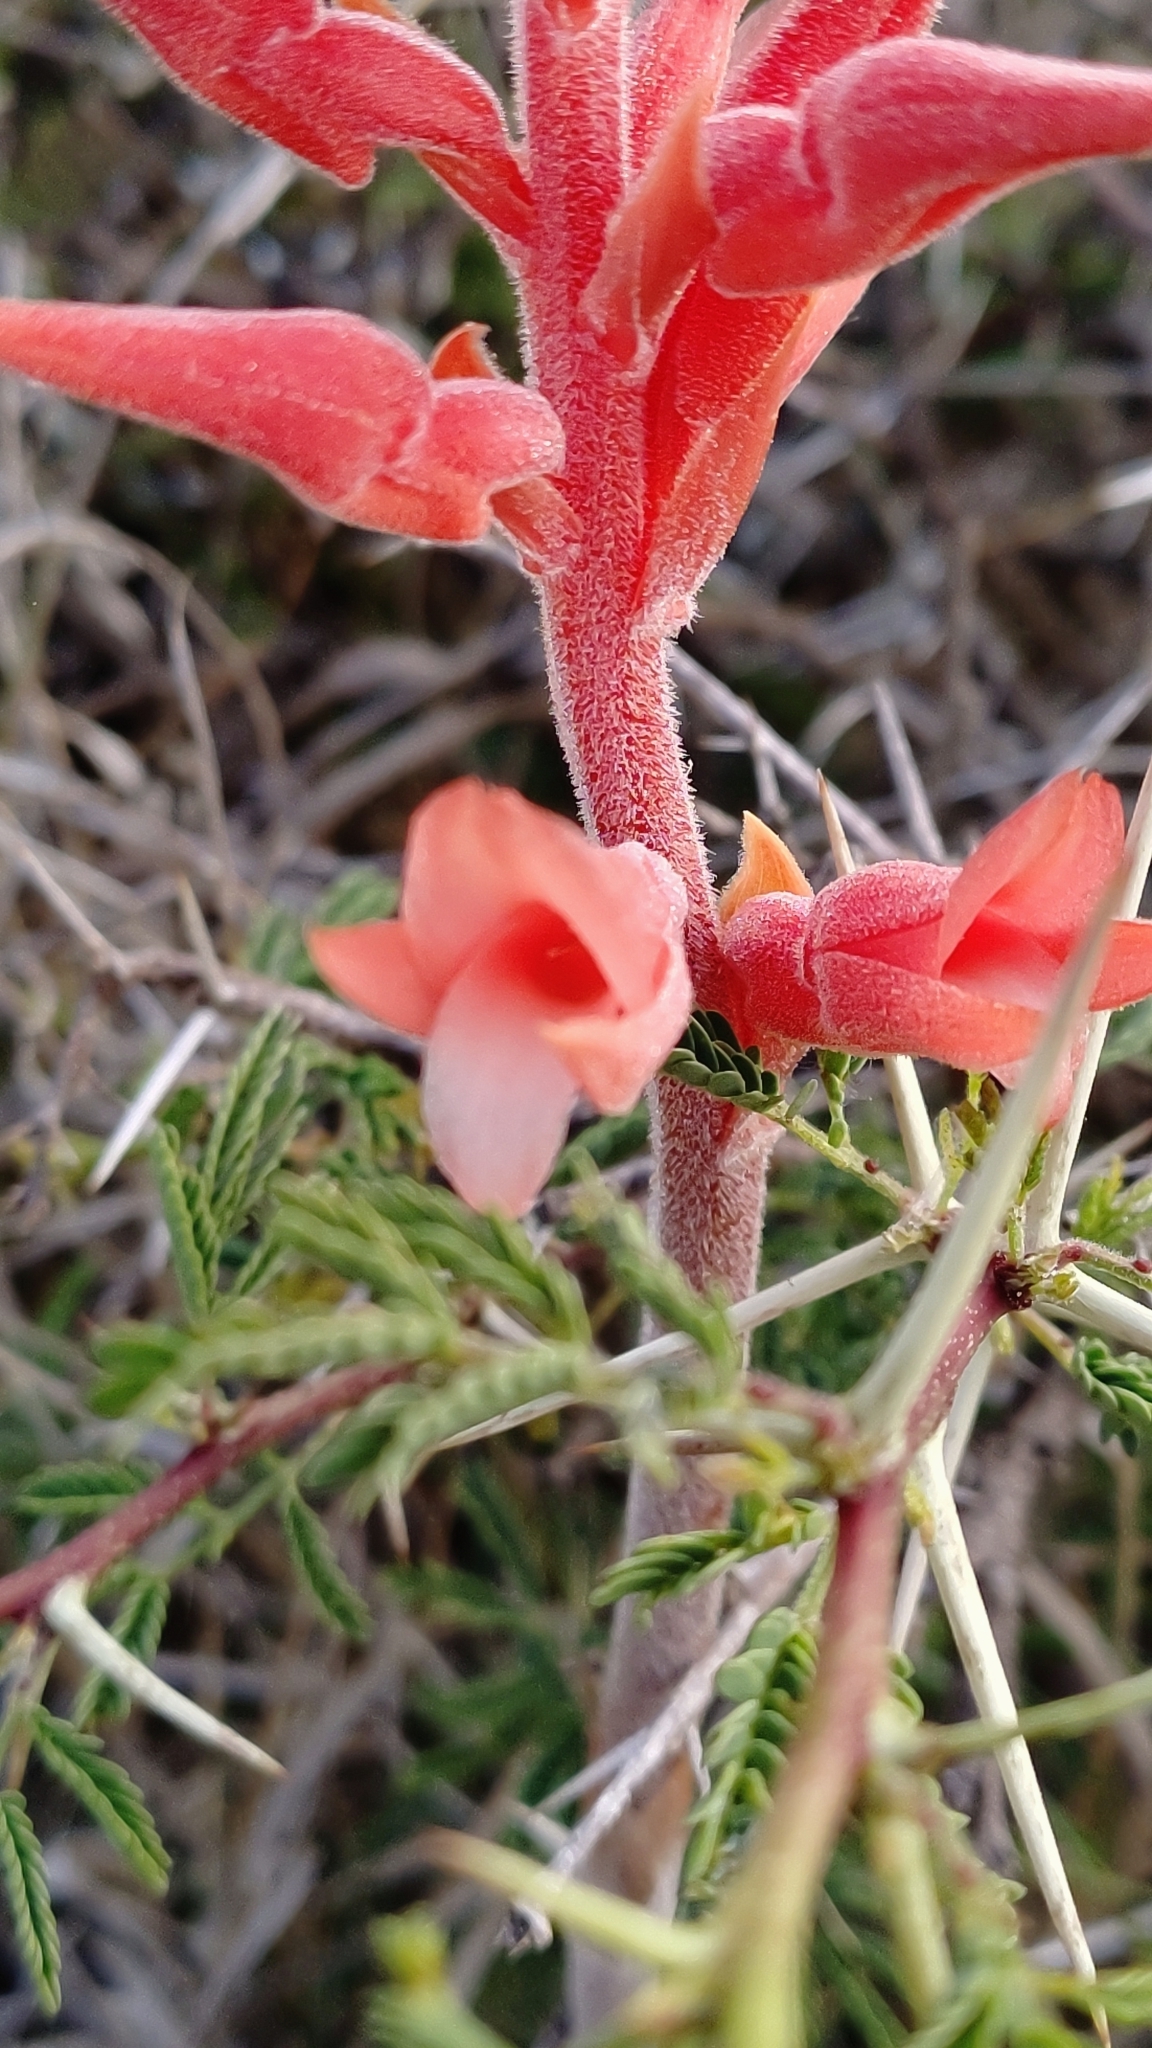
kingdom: Plantae
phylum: Tracheophyta
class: Liliopsida
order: Asparagales
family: Orchidaceae
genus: Sacoila
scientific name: Sacoila lanceolata
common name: Leafless beaked ladiestresses
